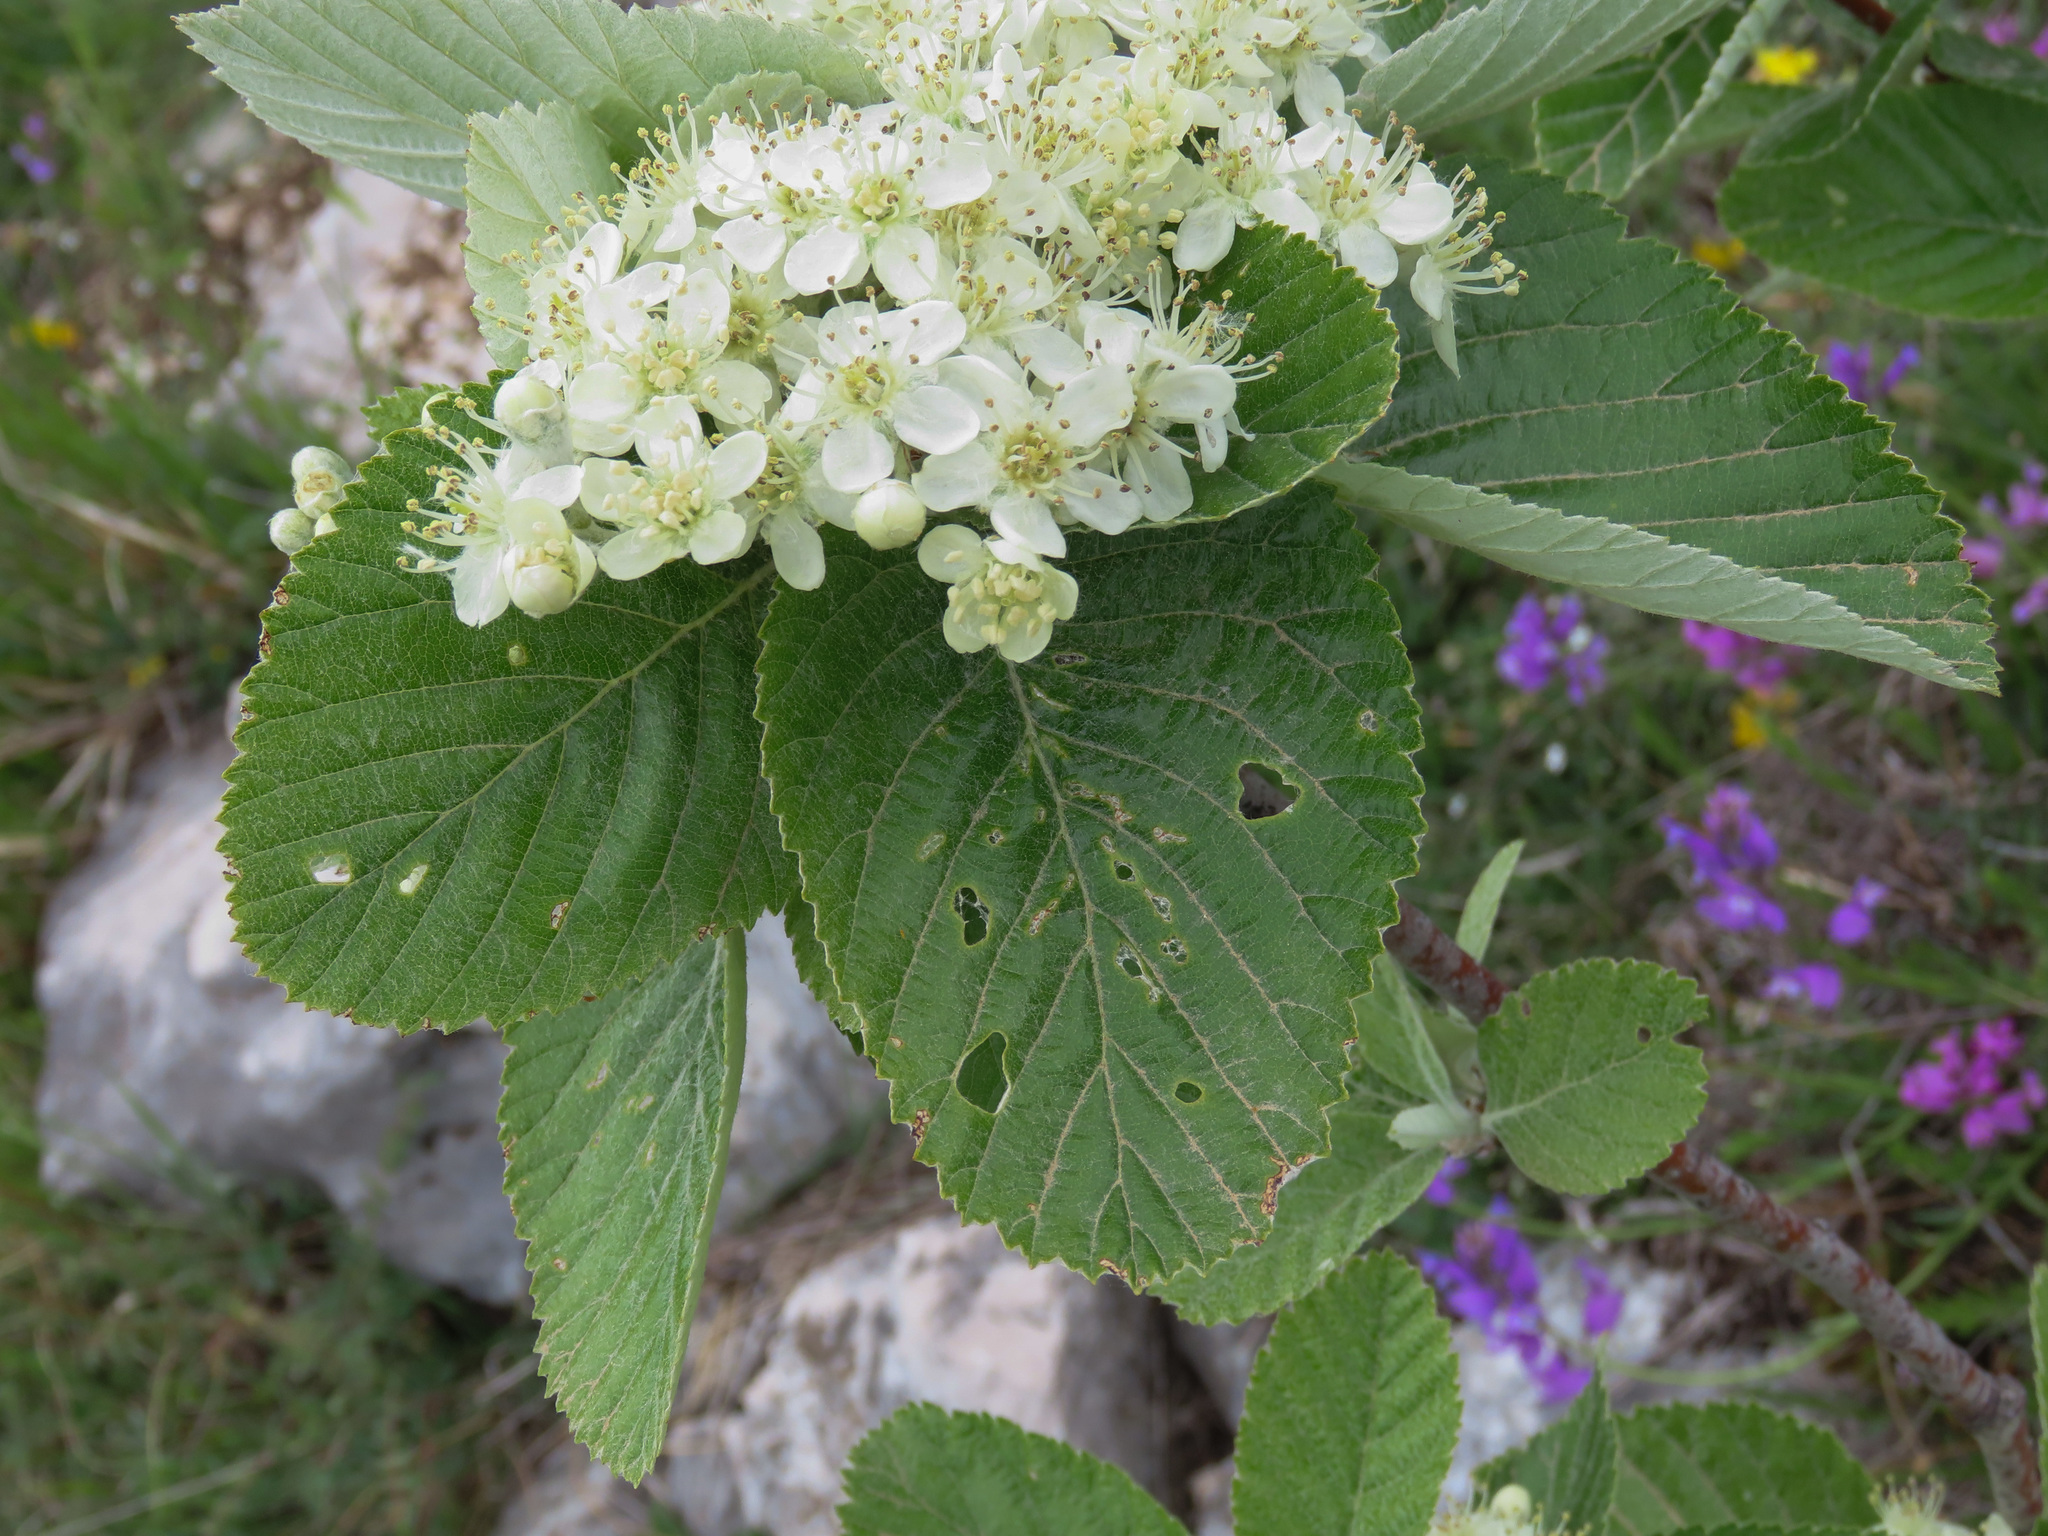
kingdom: Plantae
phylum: Tracheophyta
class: Magnoliopsida
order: Rosales
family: Rosaceae
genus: Aria
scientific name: Aria edulis
